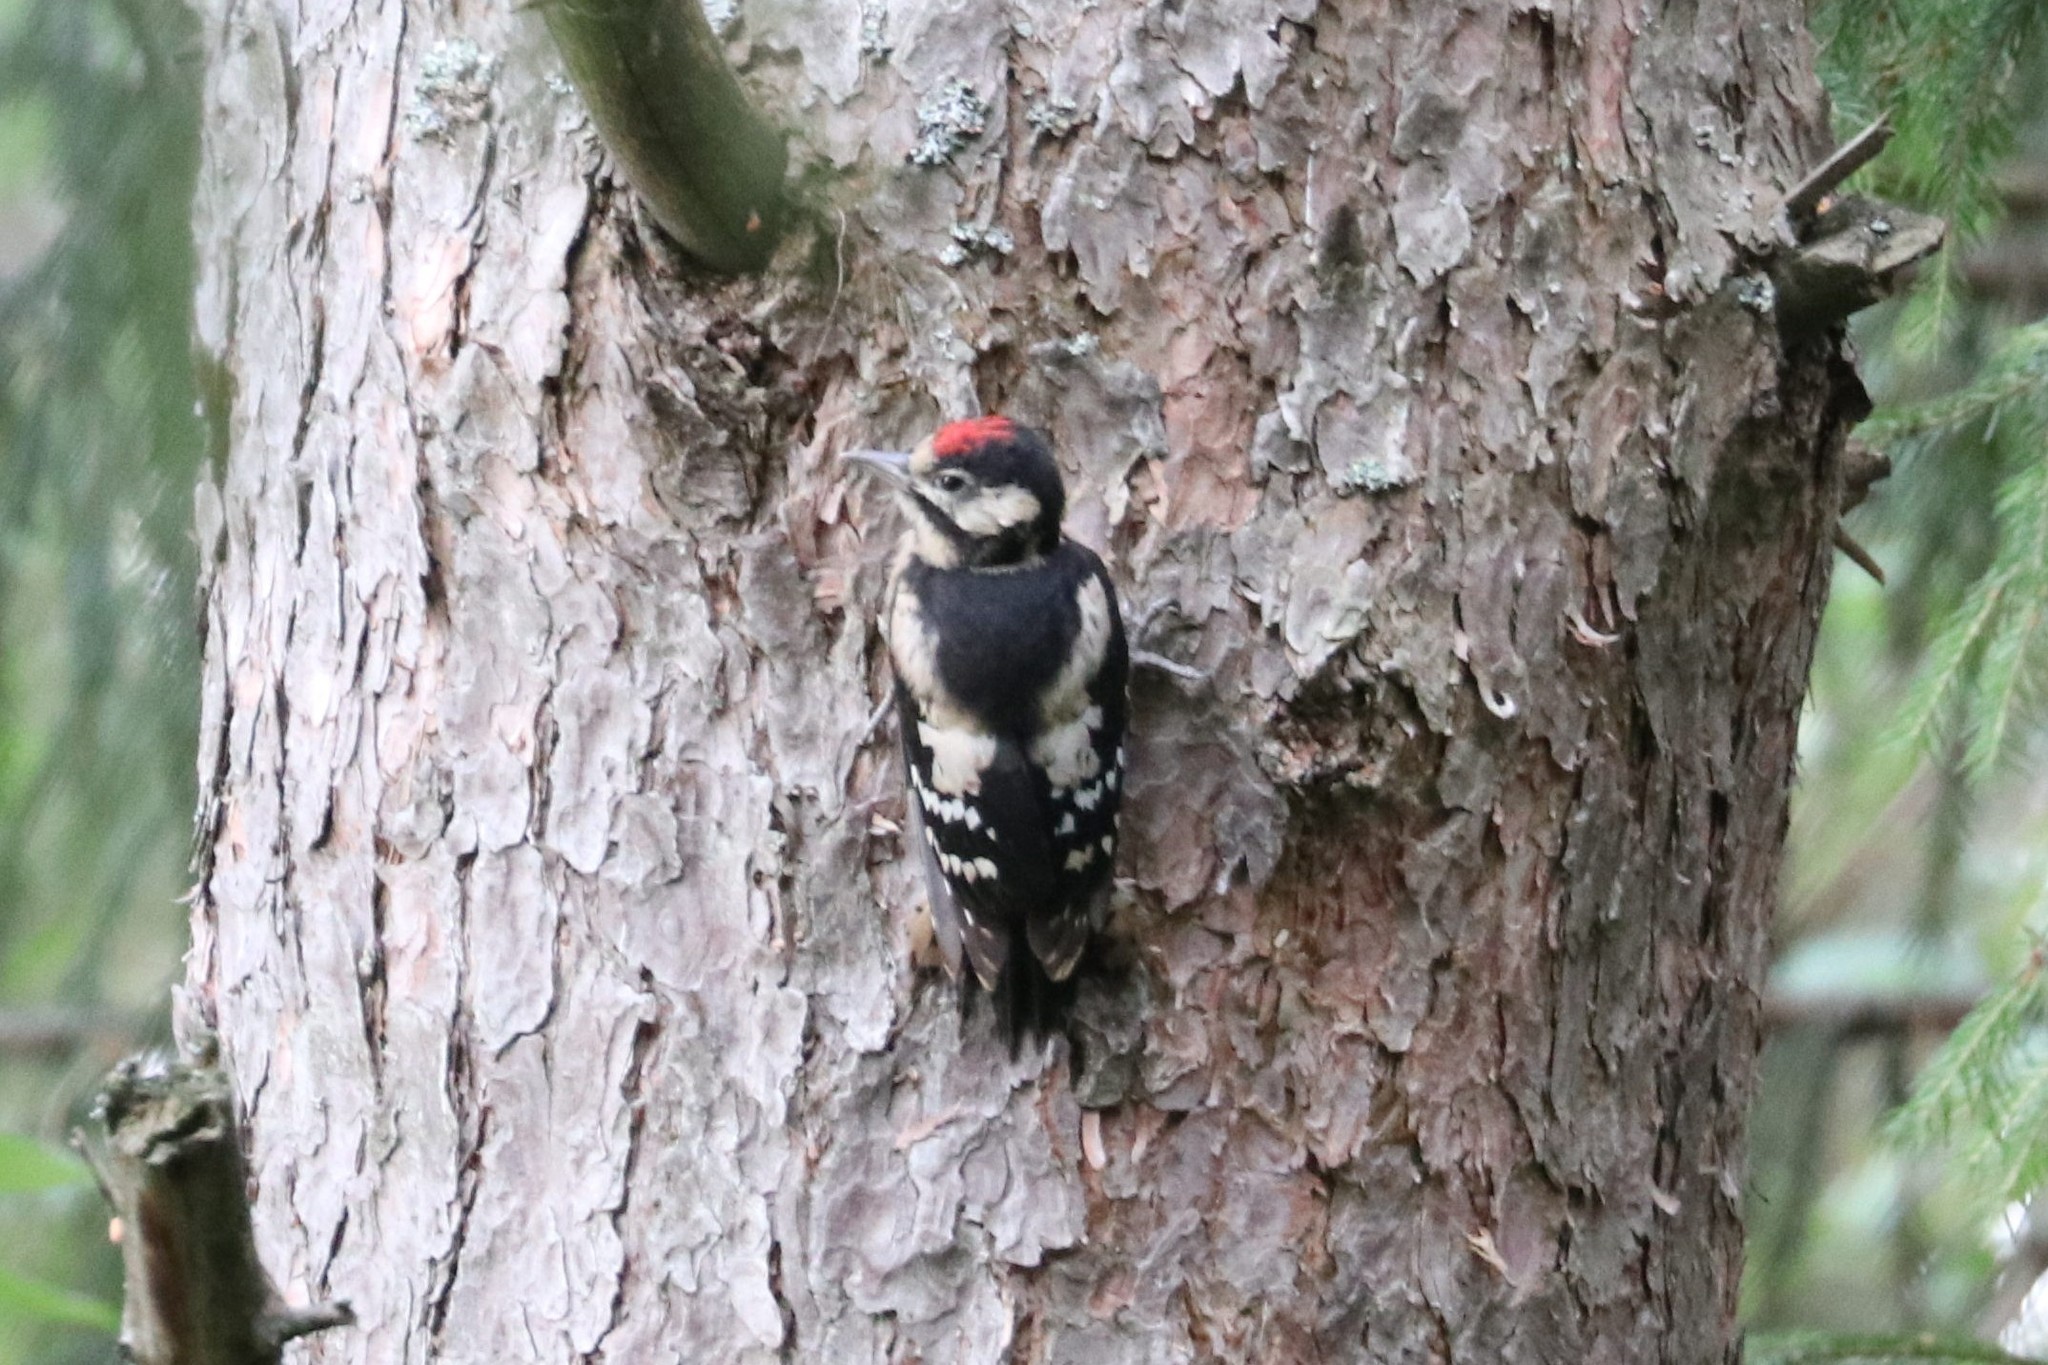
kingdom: Animalia
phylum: Chordata
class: Aves
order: Piciformes
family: Picidae
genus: Dendrocopos
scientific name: Dendrocopos major
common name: Great spotted woodpecker
